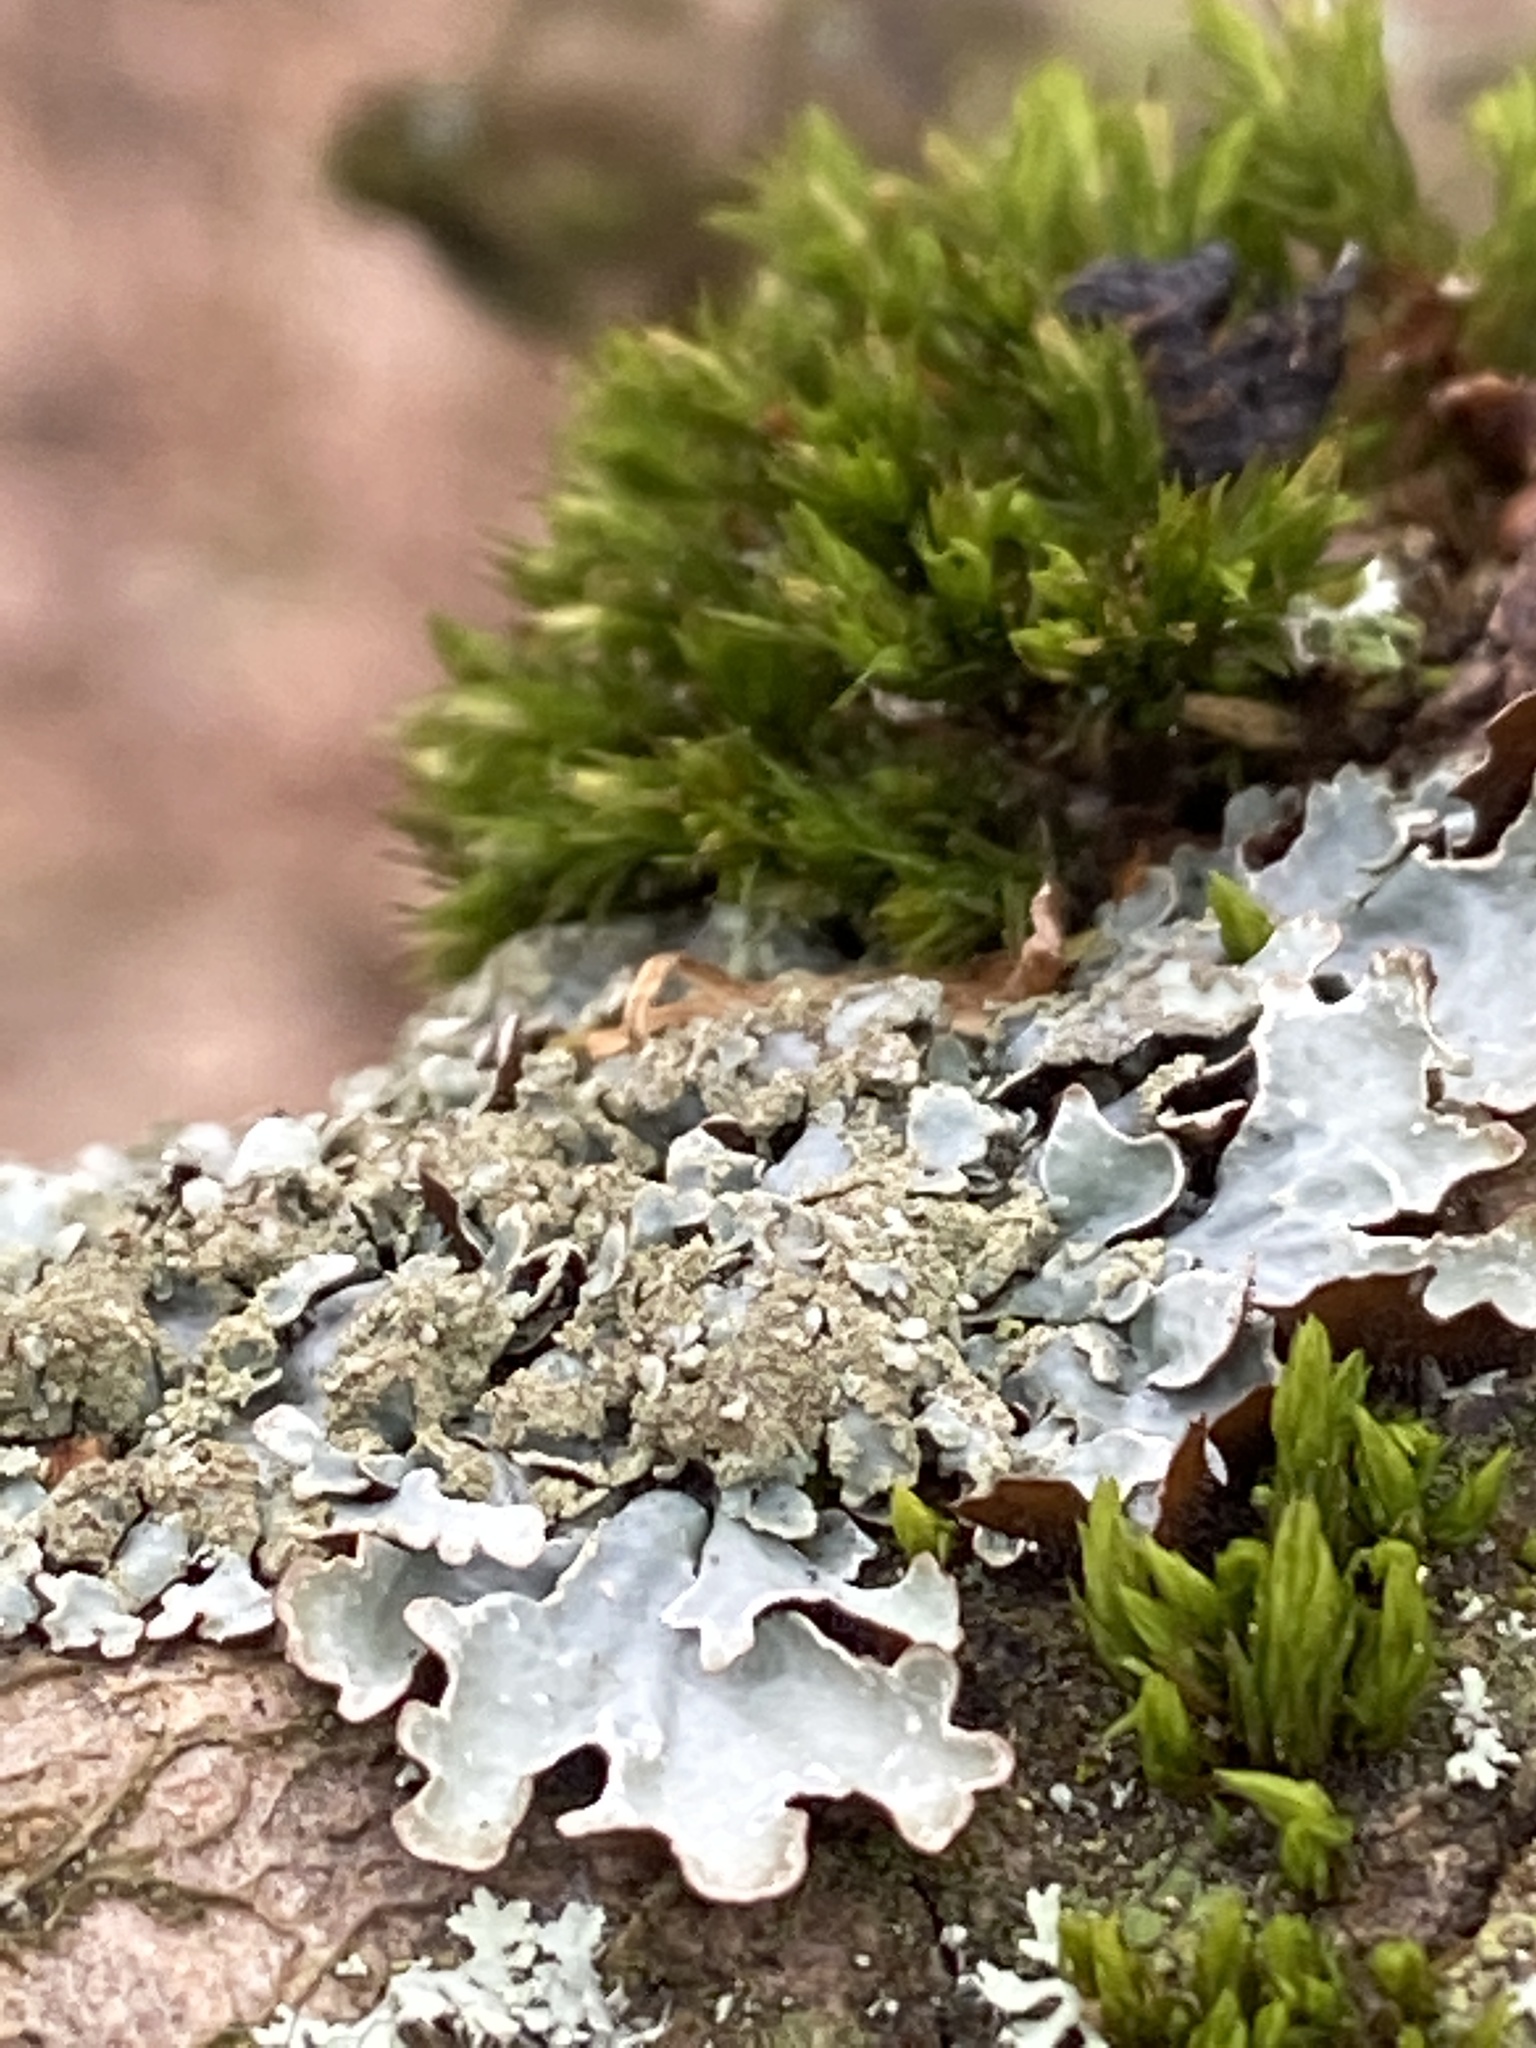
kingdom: Fungi
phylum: Ascomycota
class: Lecanoromycetes
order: Lecanorales
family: Parmeliaceae
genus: Parmelia
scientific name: Parmelia sulcata
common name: Netted shield lichen
